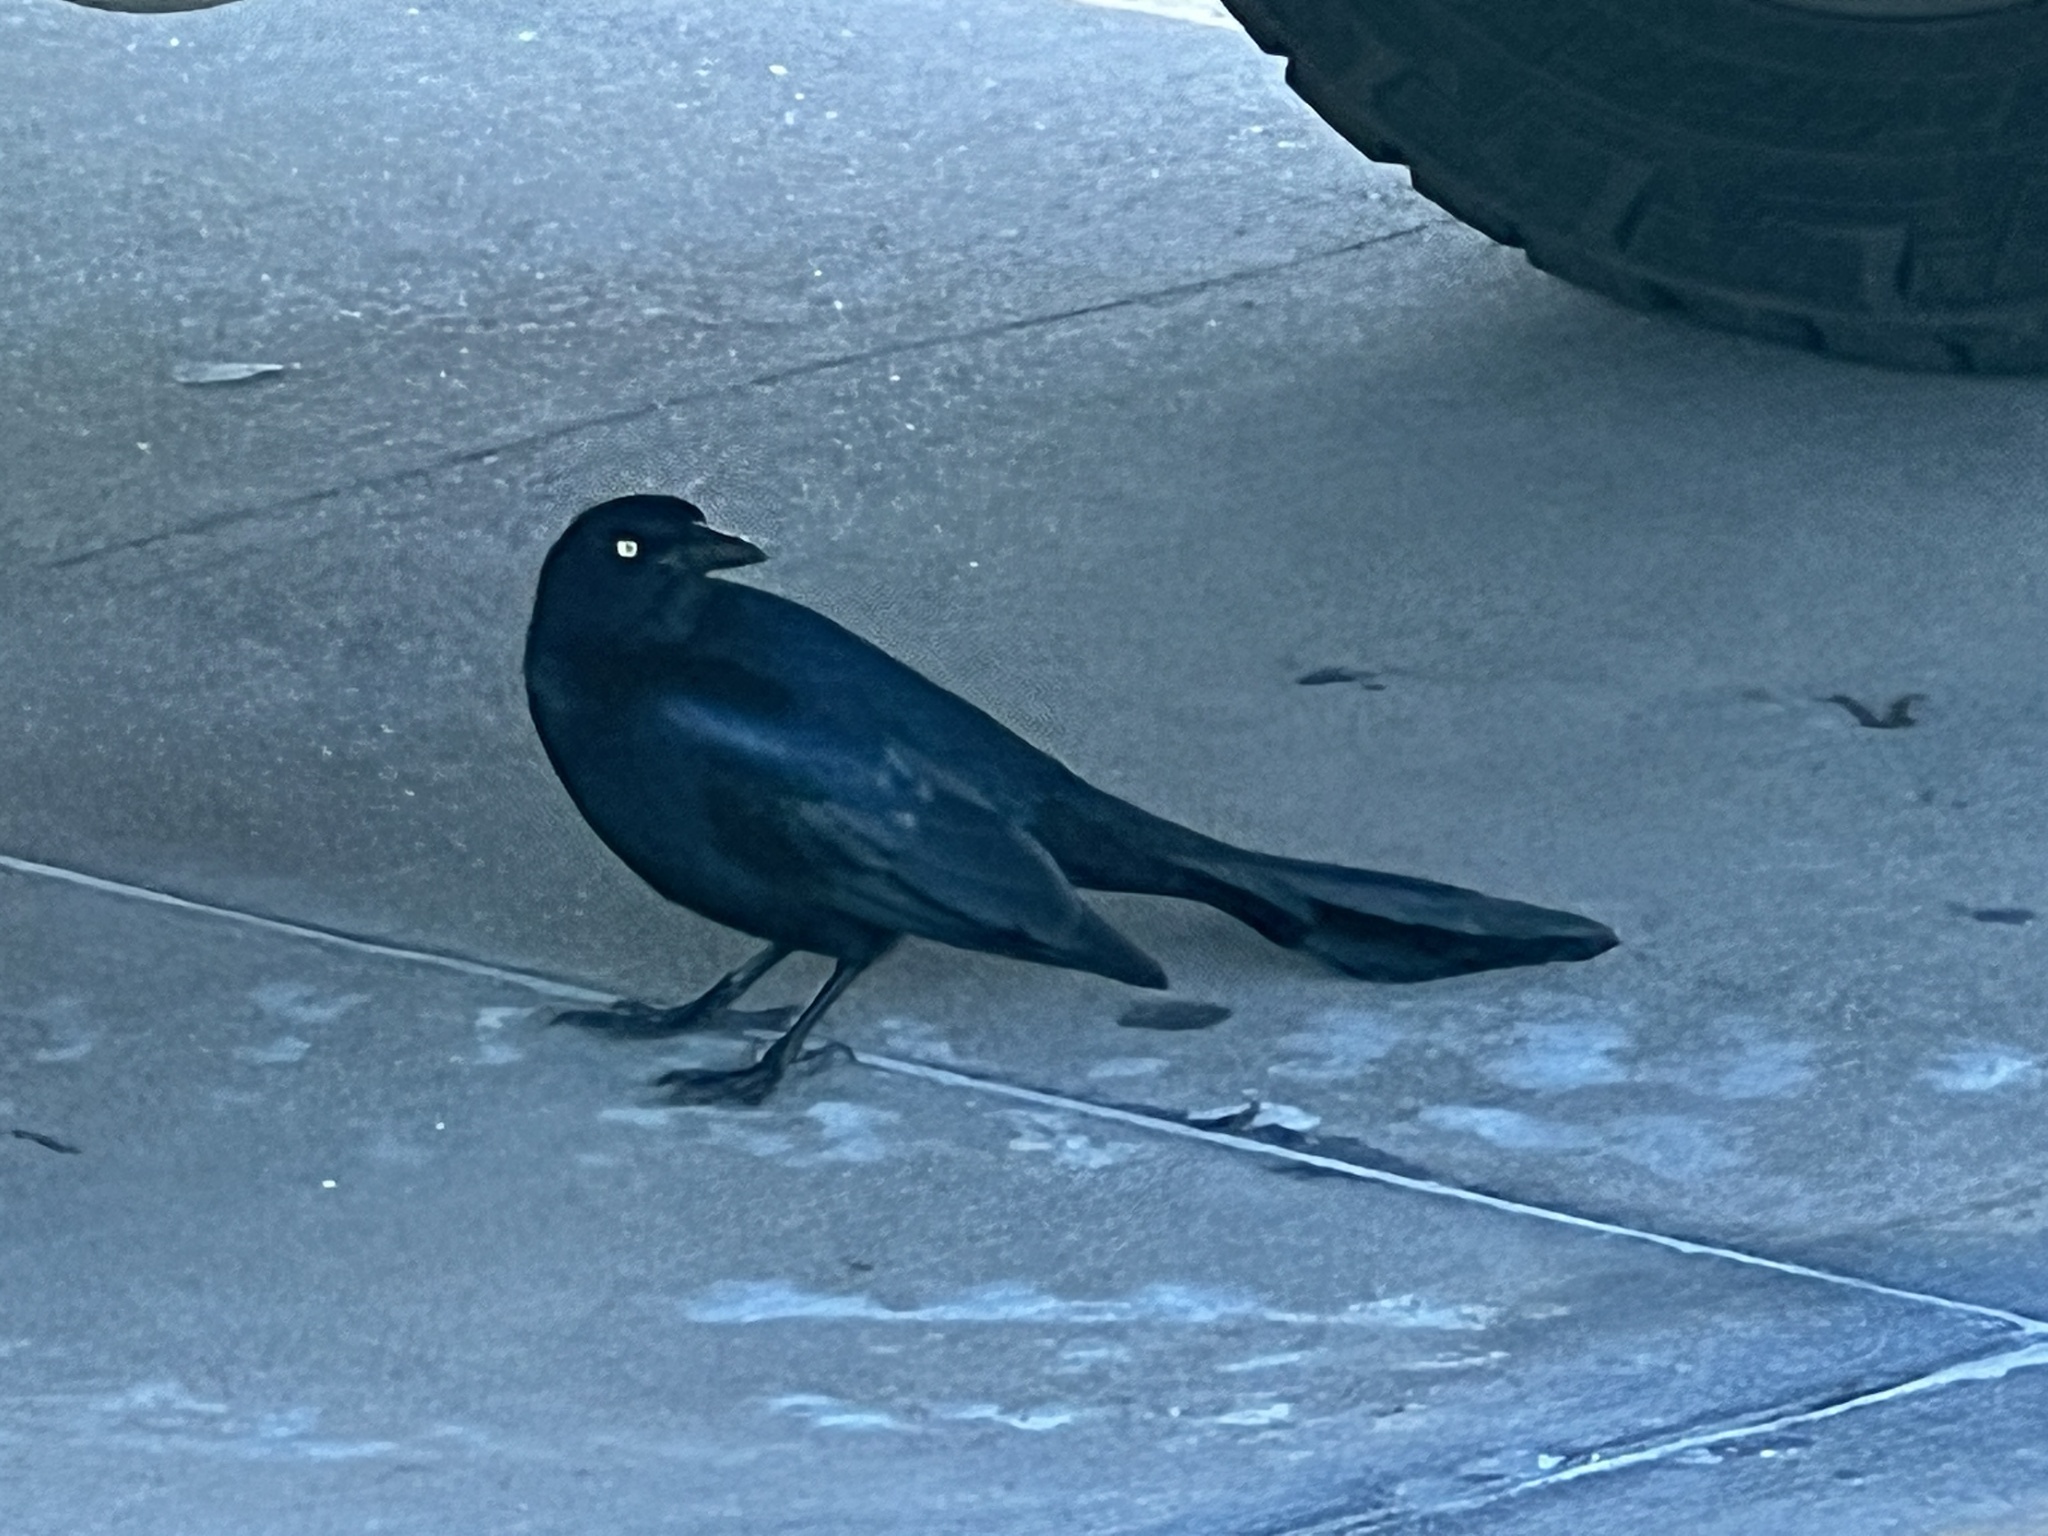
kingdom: Animalia
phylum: Chordata
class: Aves
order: Passeriformes
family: Icteridae
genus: Quiscalus
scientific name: Quiscalus mexicanus
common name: Great-tailed grackle
